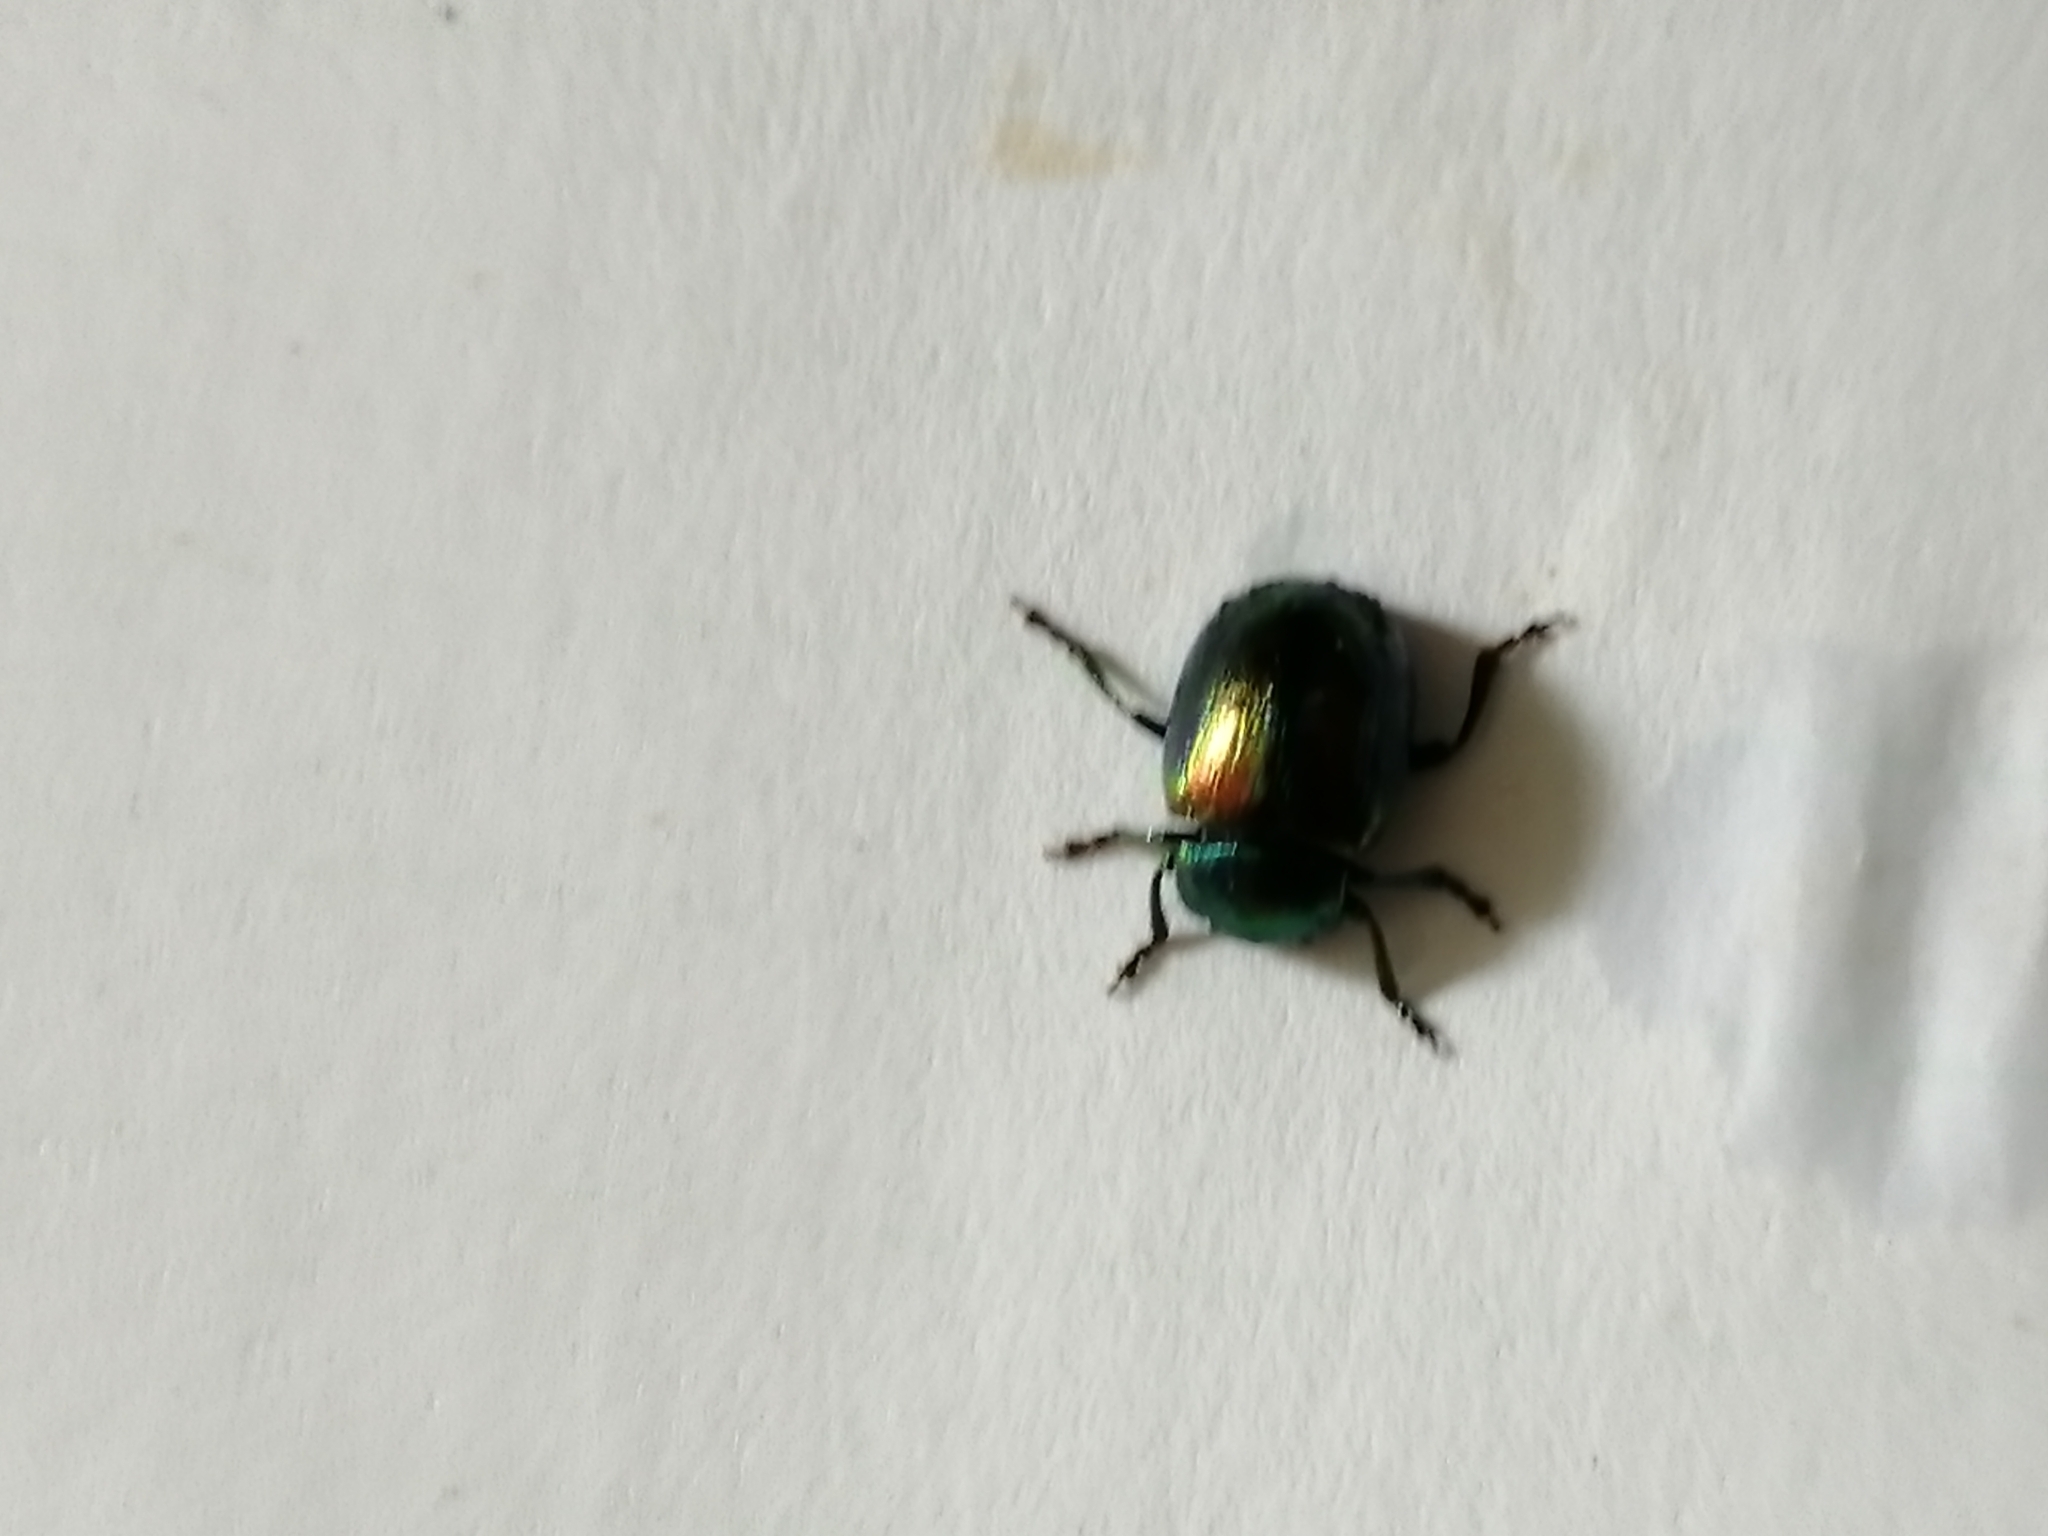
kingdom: Animalia
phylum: Arthropoda
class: Insecta
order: Coleoptera
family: Chrysomelidae
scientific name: Chrysomelidae
